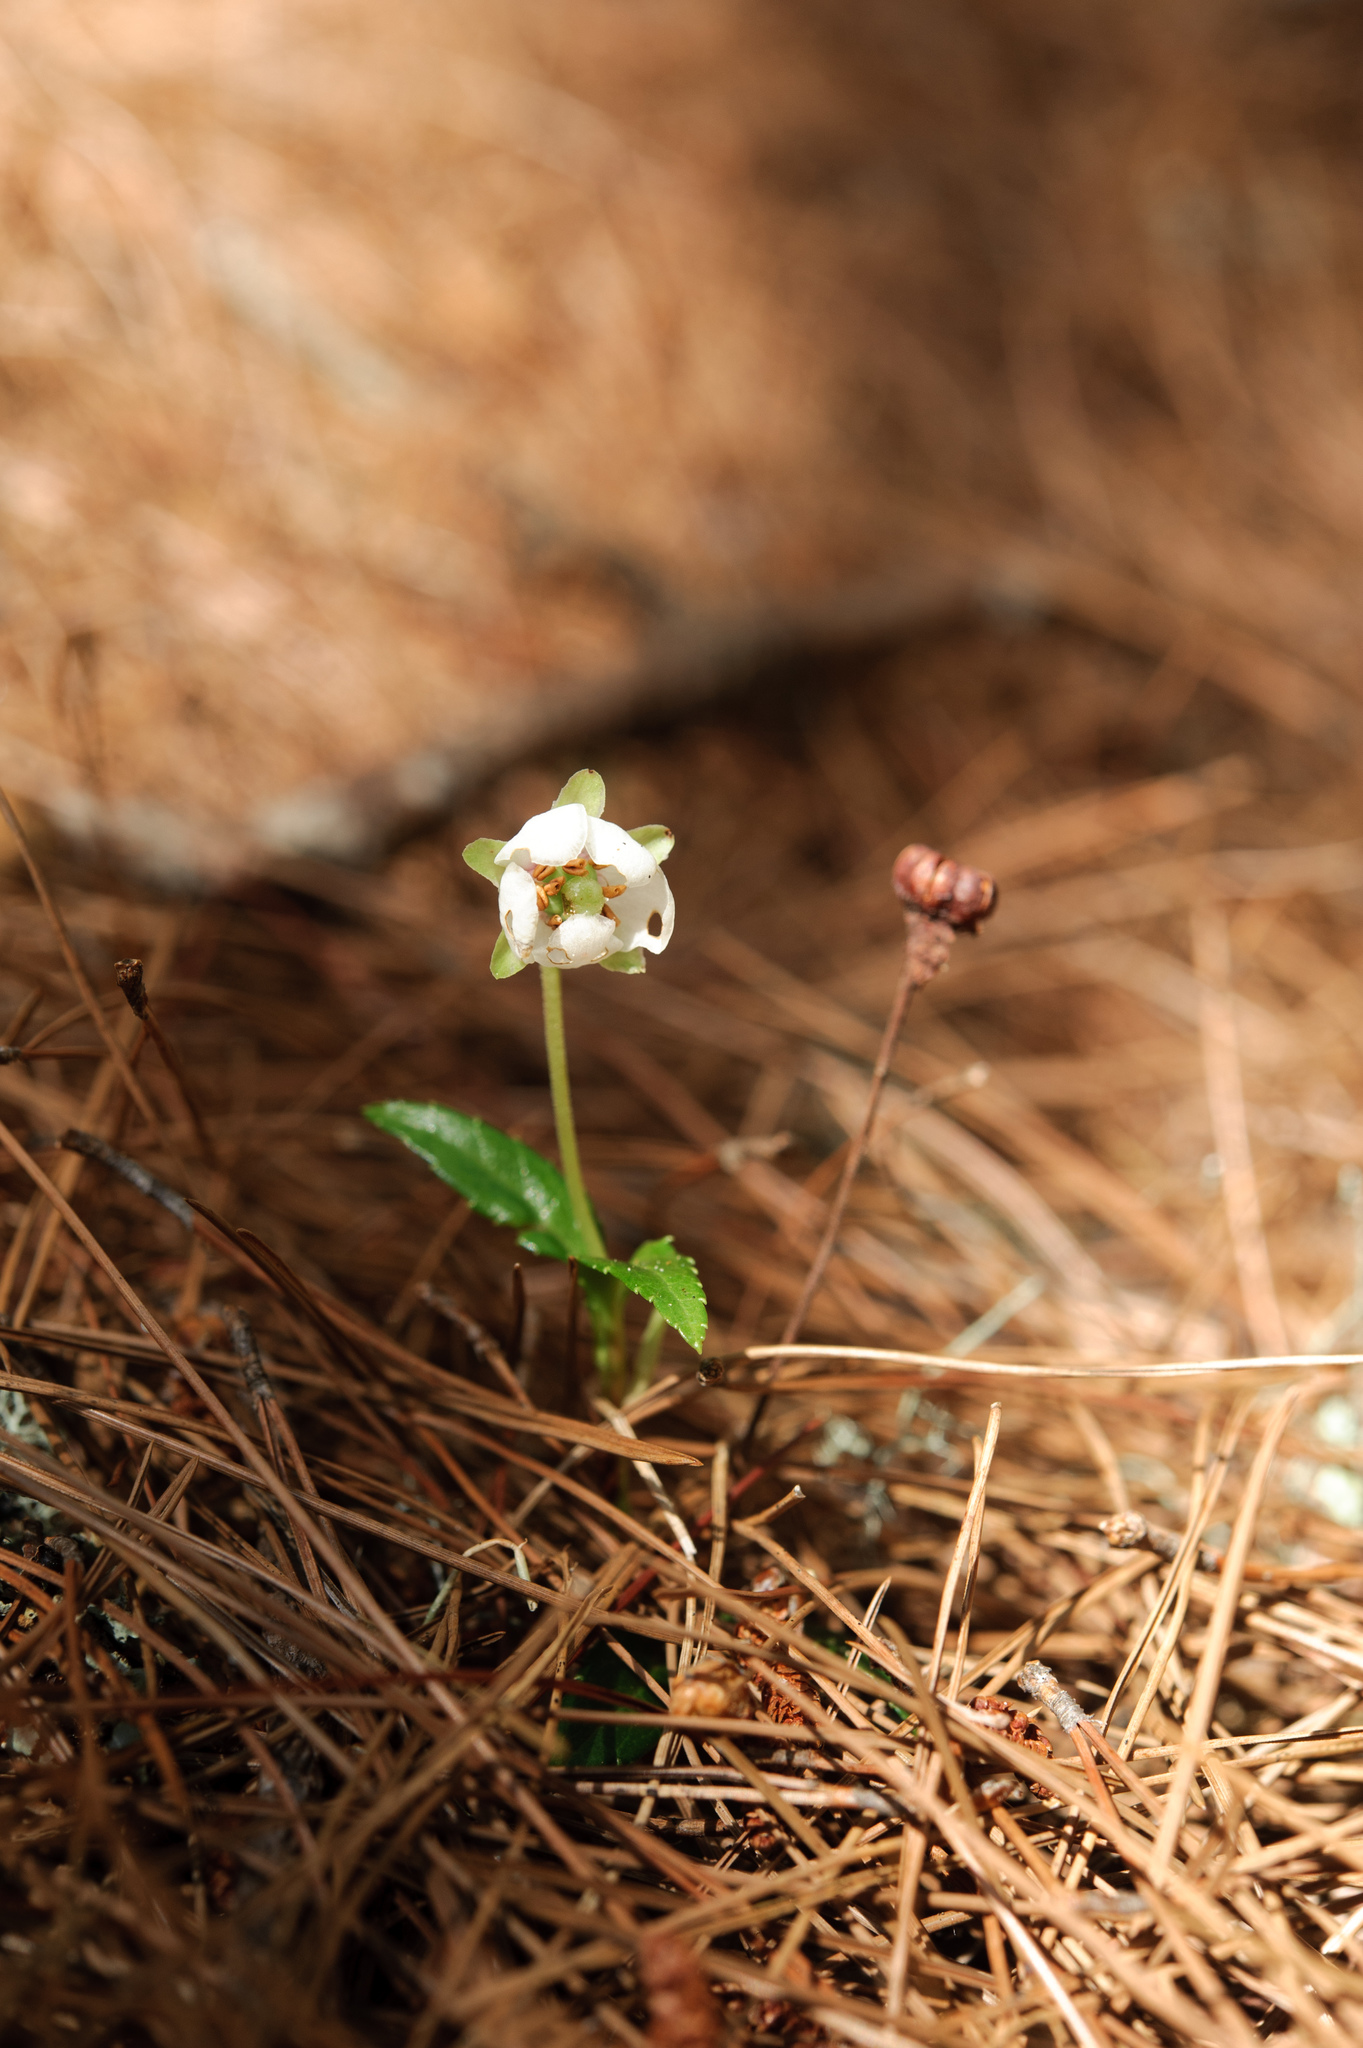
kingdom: Plantae
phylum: Tracheophyta
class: Magnoliopsida
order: Ericales
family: Ericaceae
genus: Chimaphila
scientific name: Chimaphila japonica
